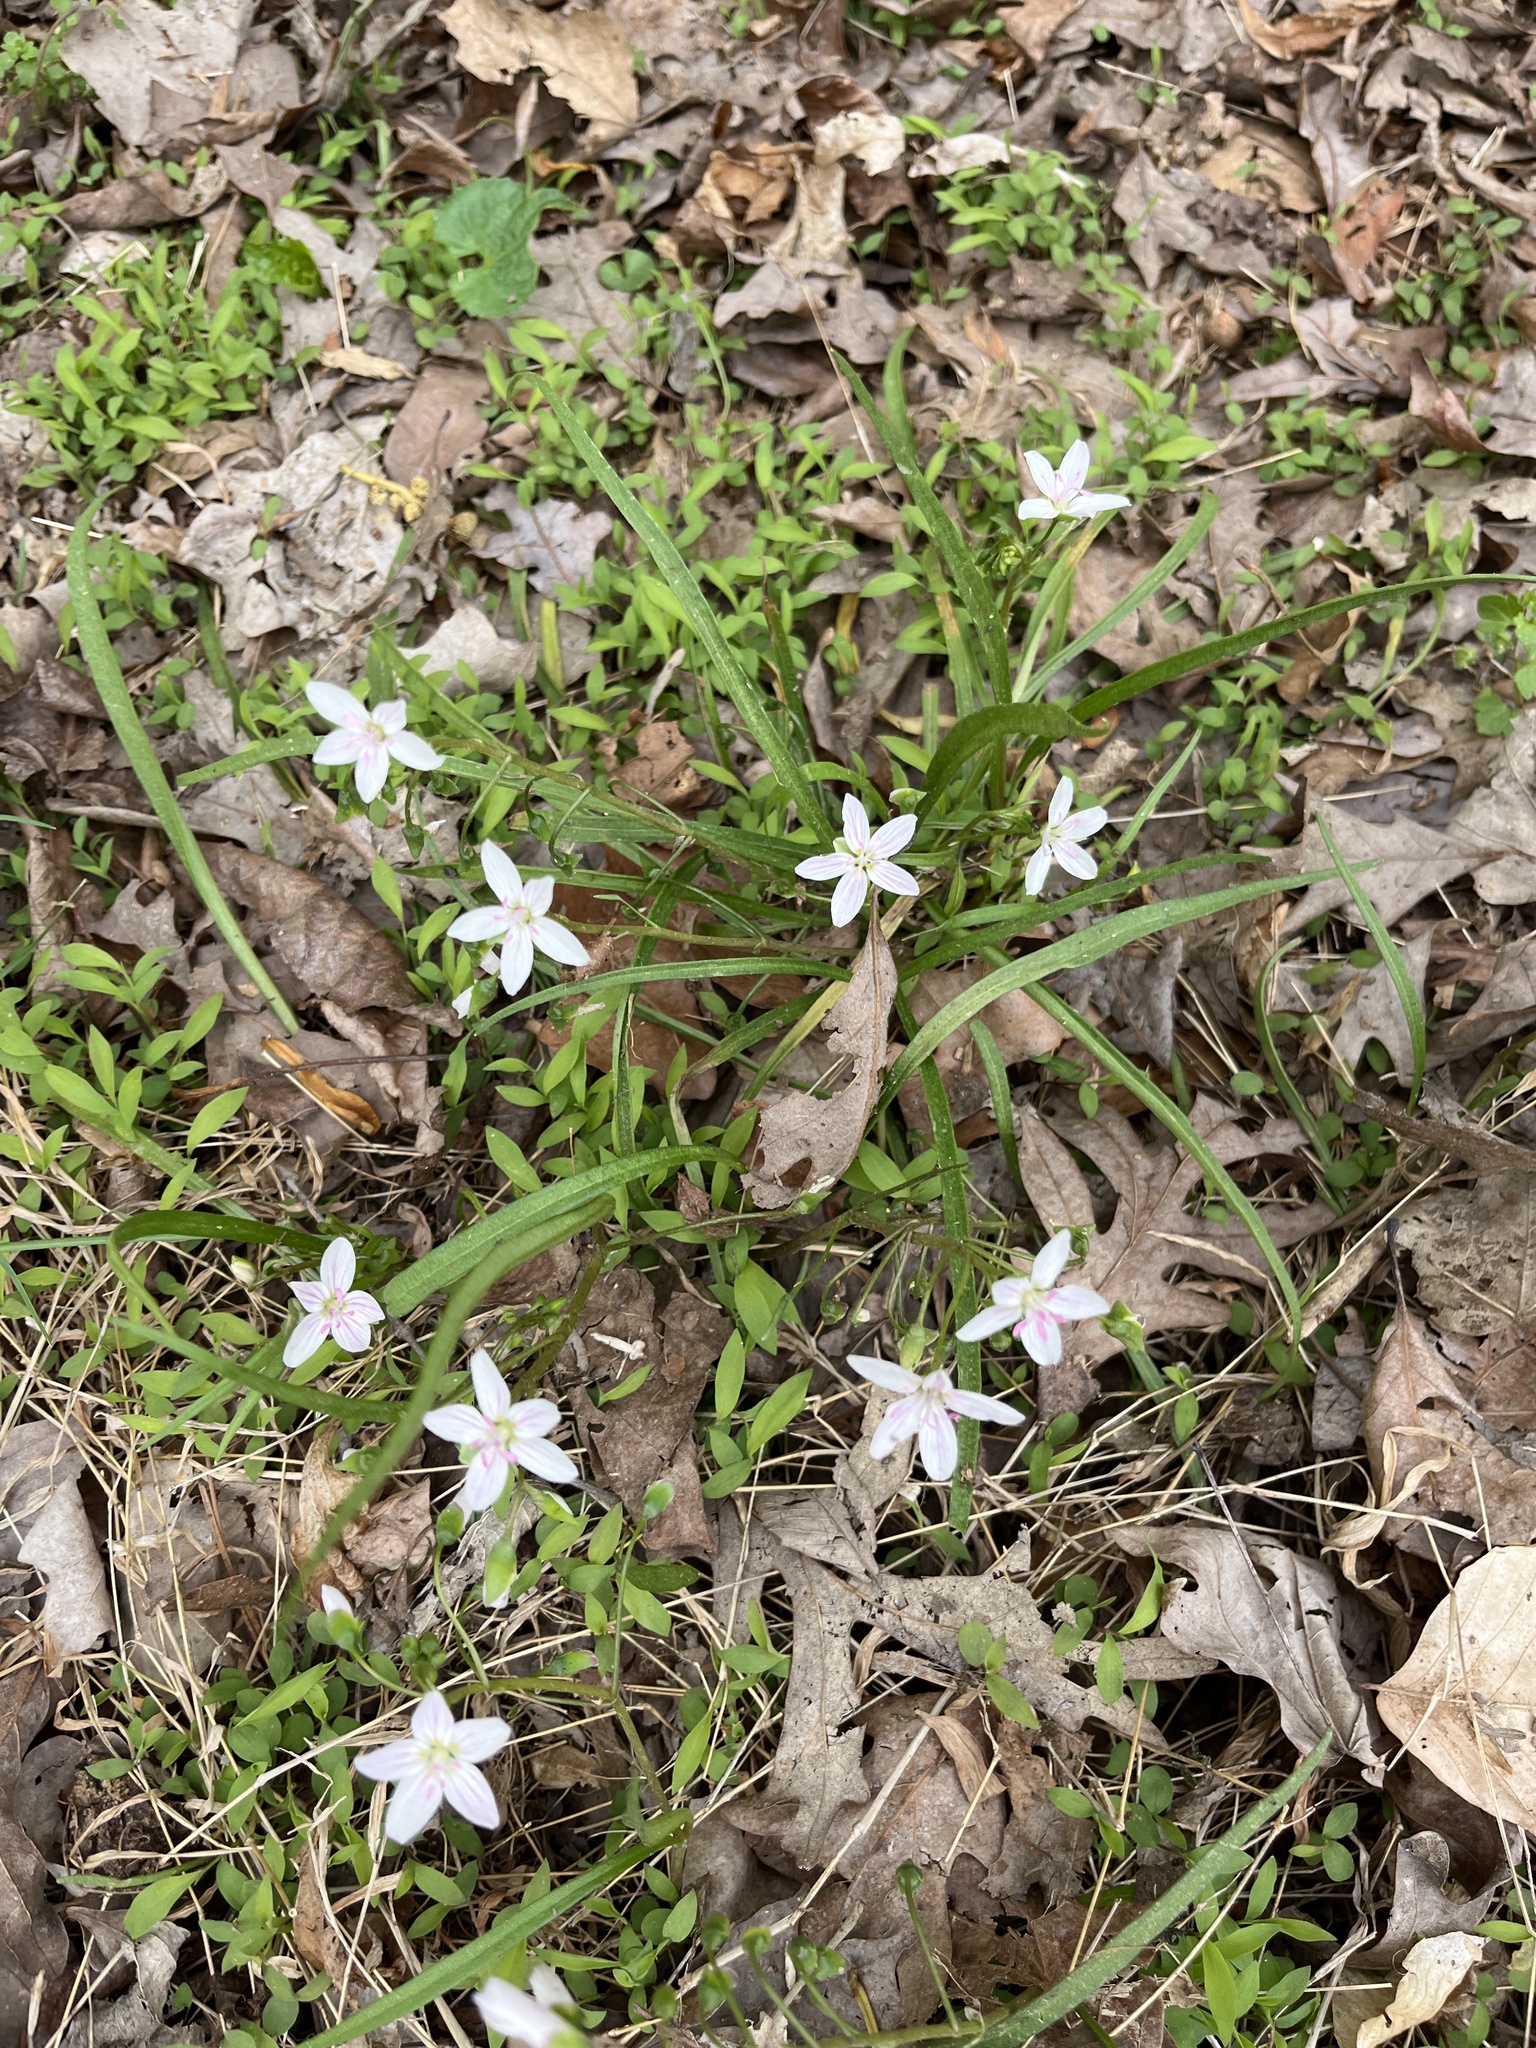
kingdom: Plantae
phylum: Tracheophyta
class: Magnoliopsida
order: Caryophyllales
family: Montiaceae
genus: Claytonia
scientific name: Claytonia virginica
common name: Virginia springbeauty
